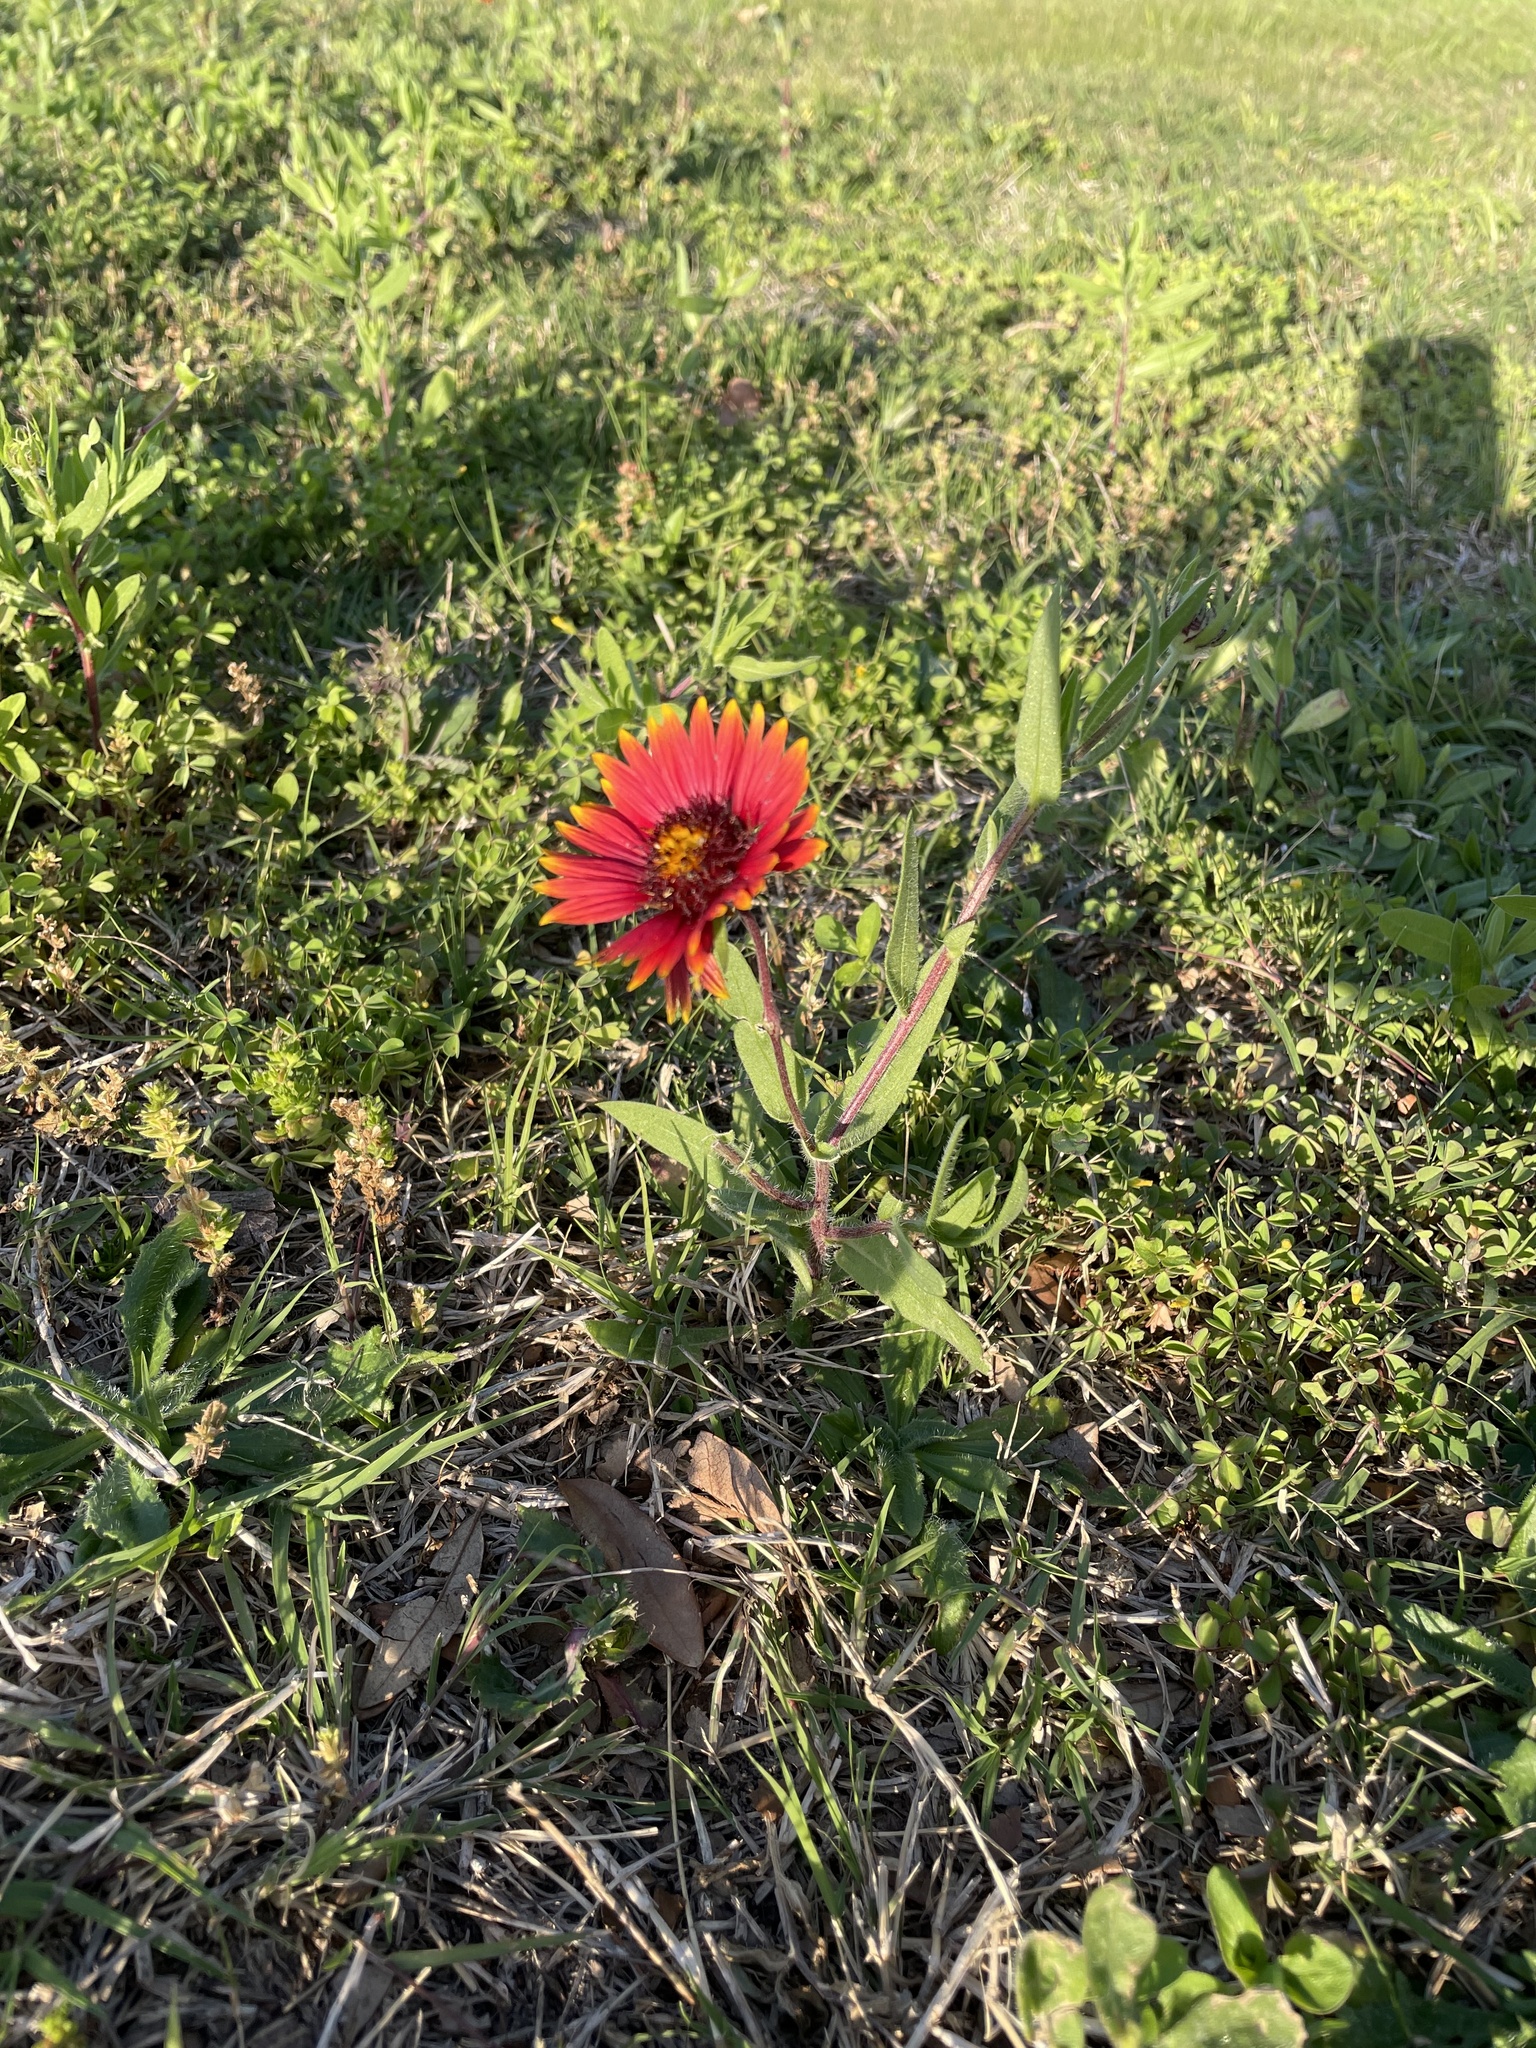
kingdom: Plantae
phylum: Tracheophyta
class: Magnoliopsida
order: Asterales
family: Asteraceae
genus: Gaillardia
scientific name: Gaillardia pulchella
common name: Firewheel
